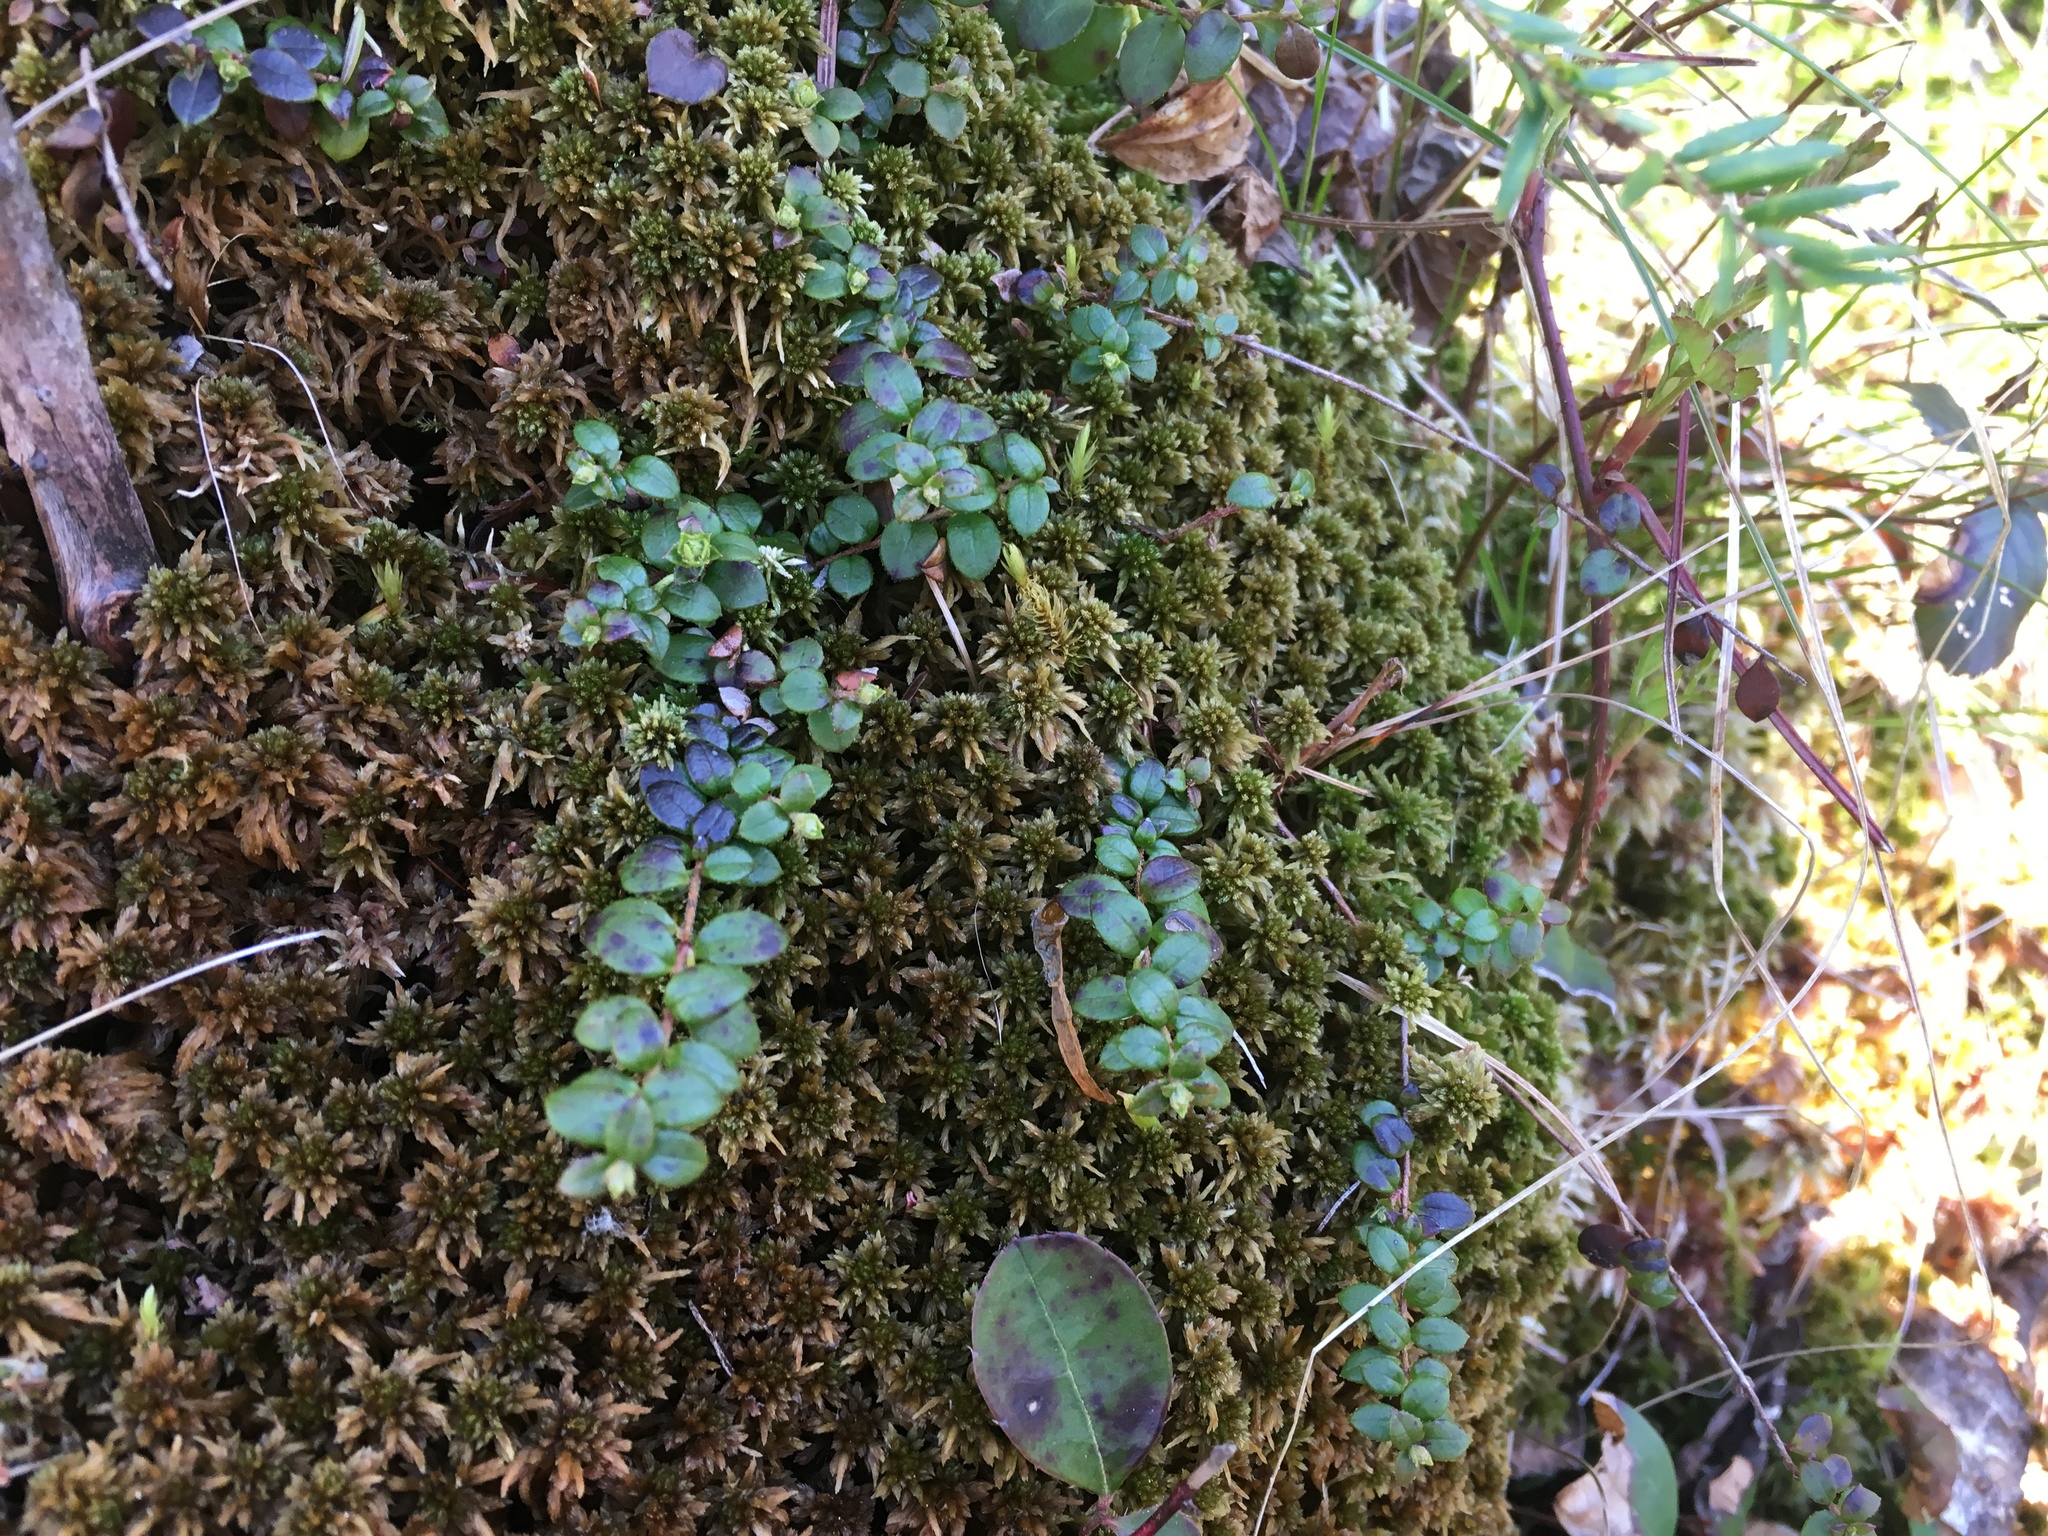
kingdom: Plantae
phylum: Tracheophyta
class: Magnoliopsida
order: Ericales
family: Ericaceae
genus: Gaultheria
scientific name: Gaultheria hispidula
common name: Cancer wintergreen
